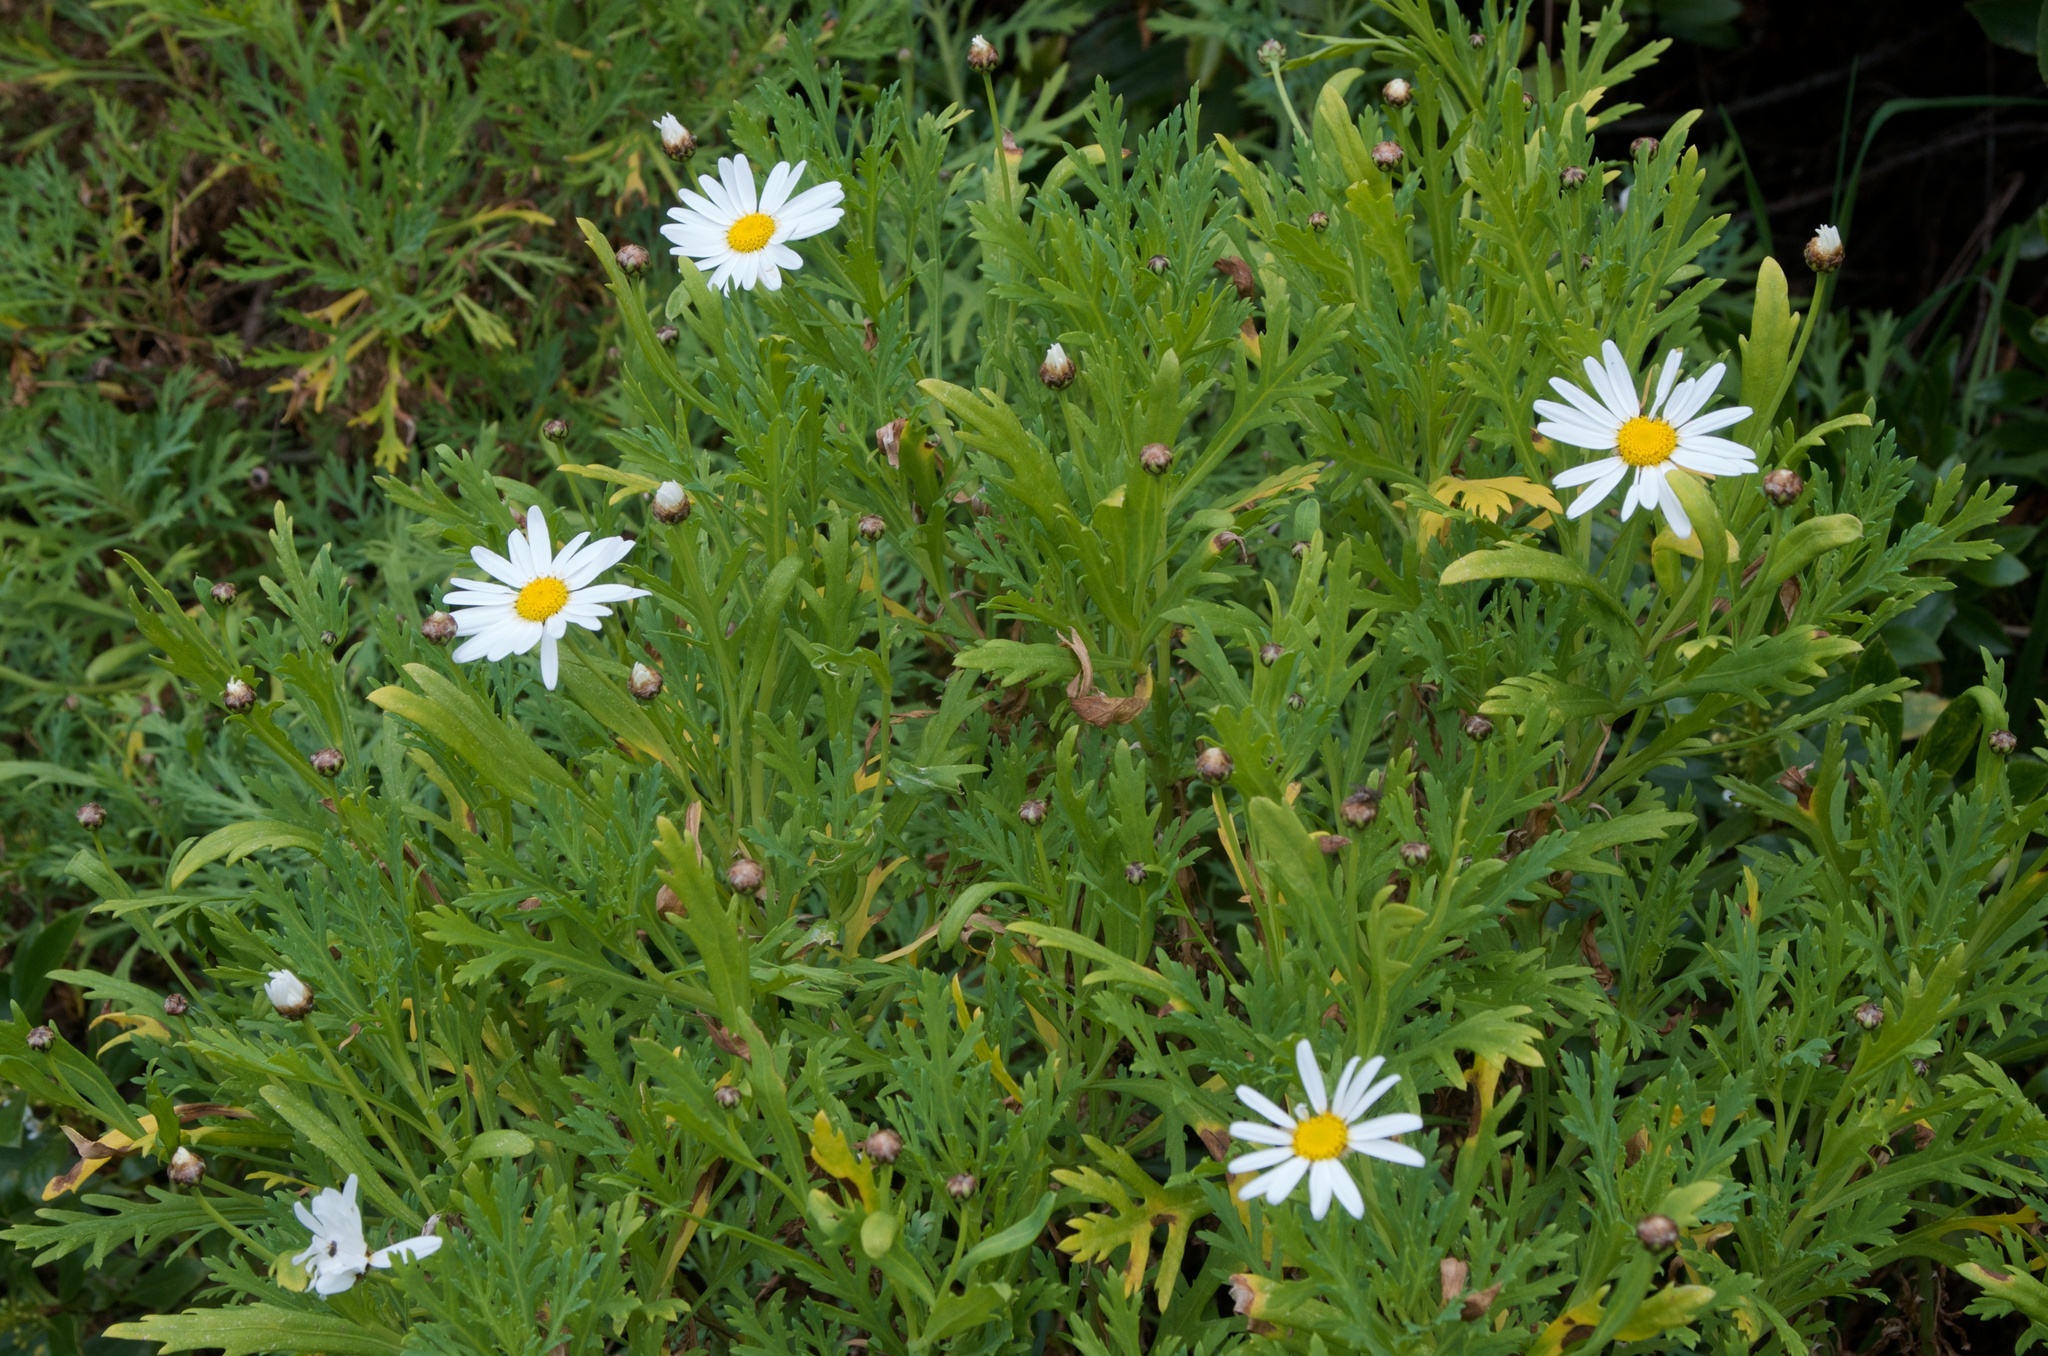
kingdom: Plantae
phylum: Tracheophyta
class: Magnoliopsida
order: Asterales
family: Asteraceae
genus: Argyranthemum
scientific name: Argyranthemum frutescens
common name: Paris daisy
